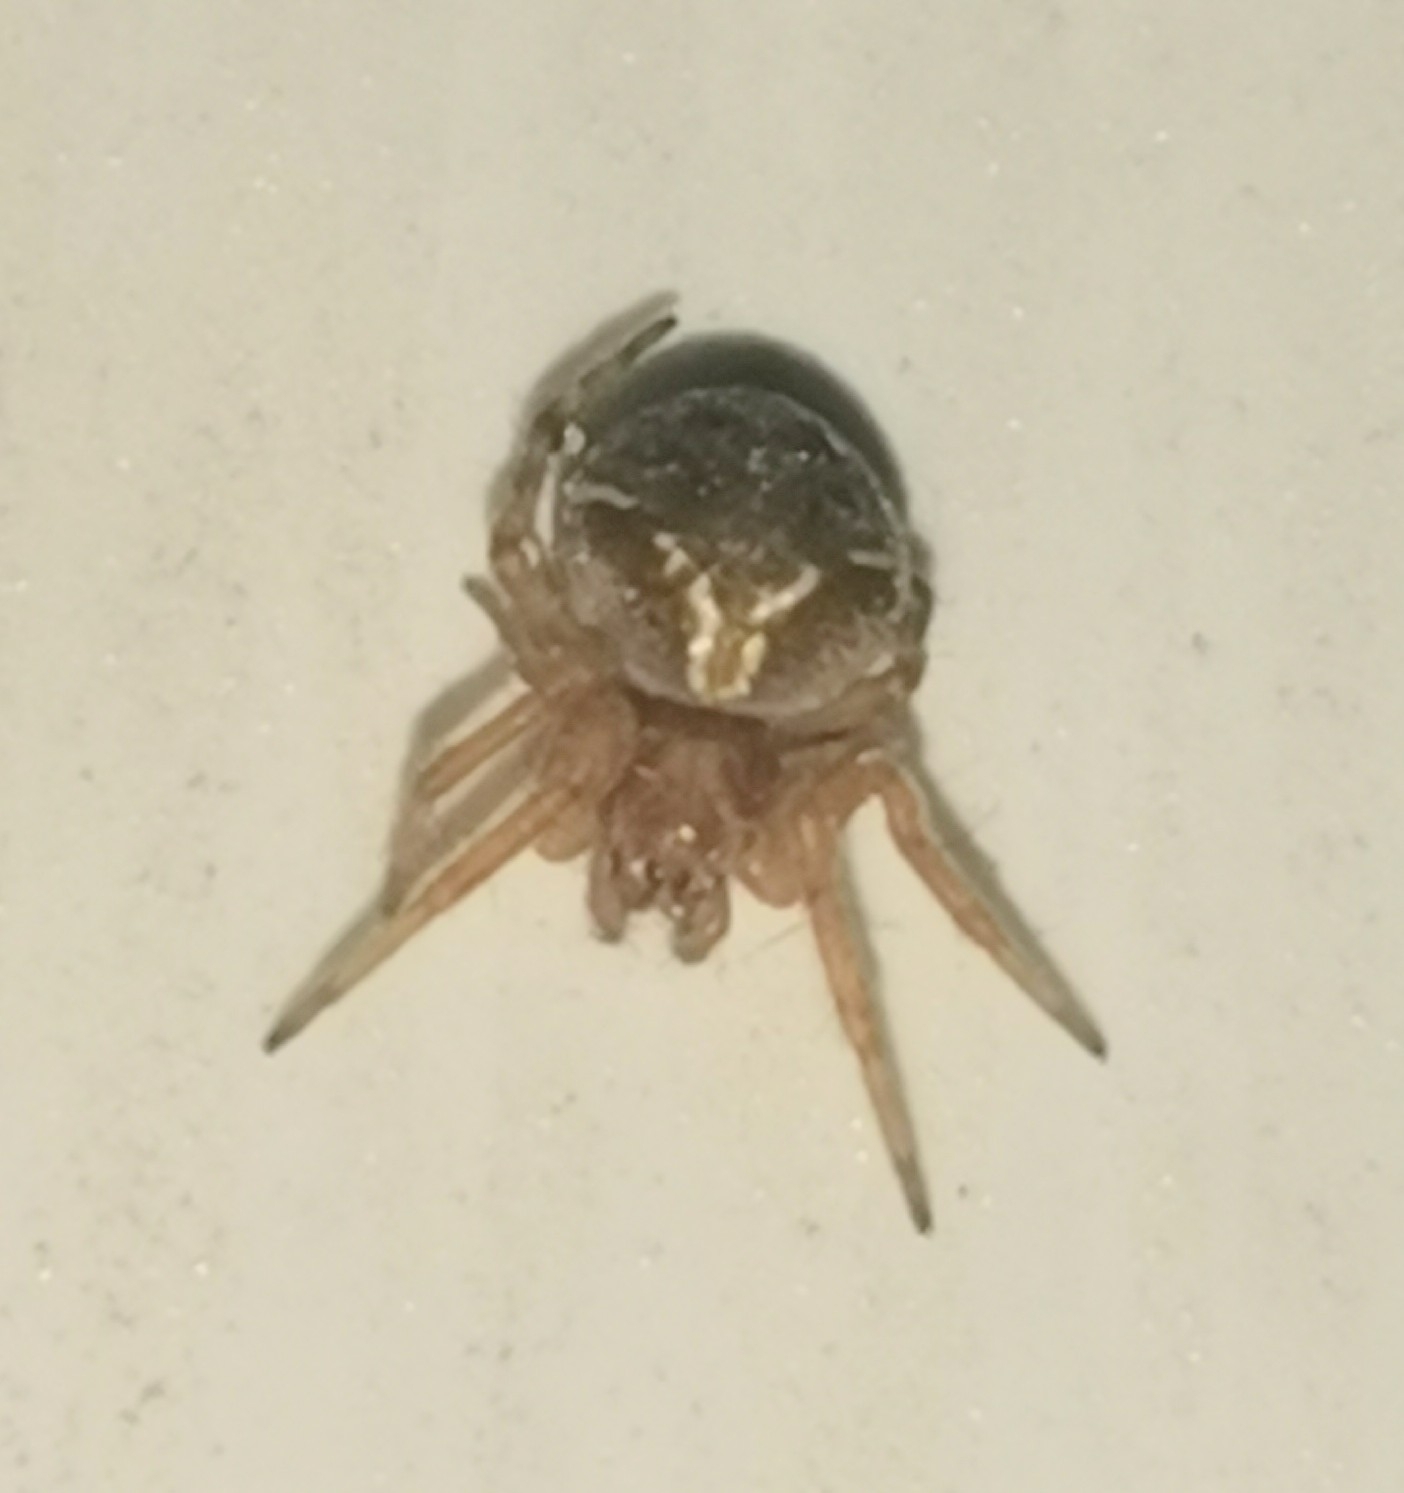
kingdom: Animalia
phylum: Arthropoda
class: Arachnida
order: Araneae
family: Araneidae
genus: Araneus
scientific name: Araneus sturmi
